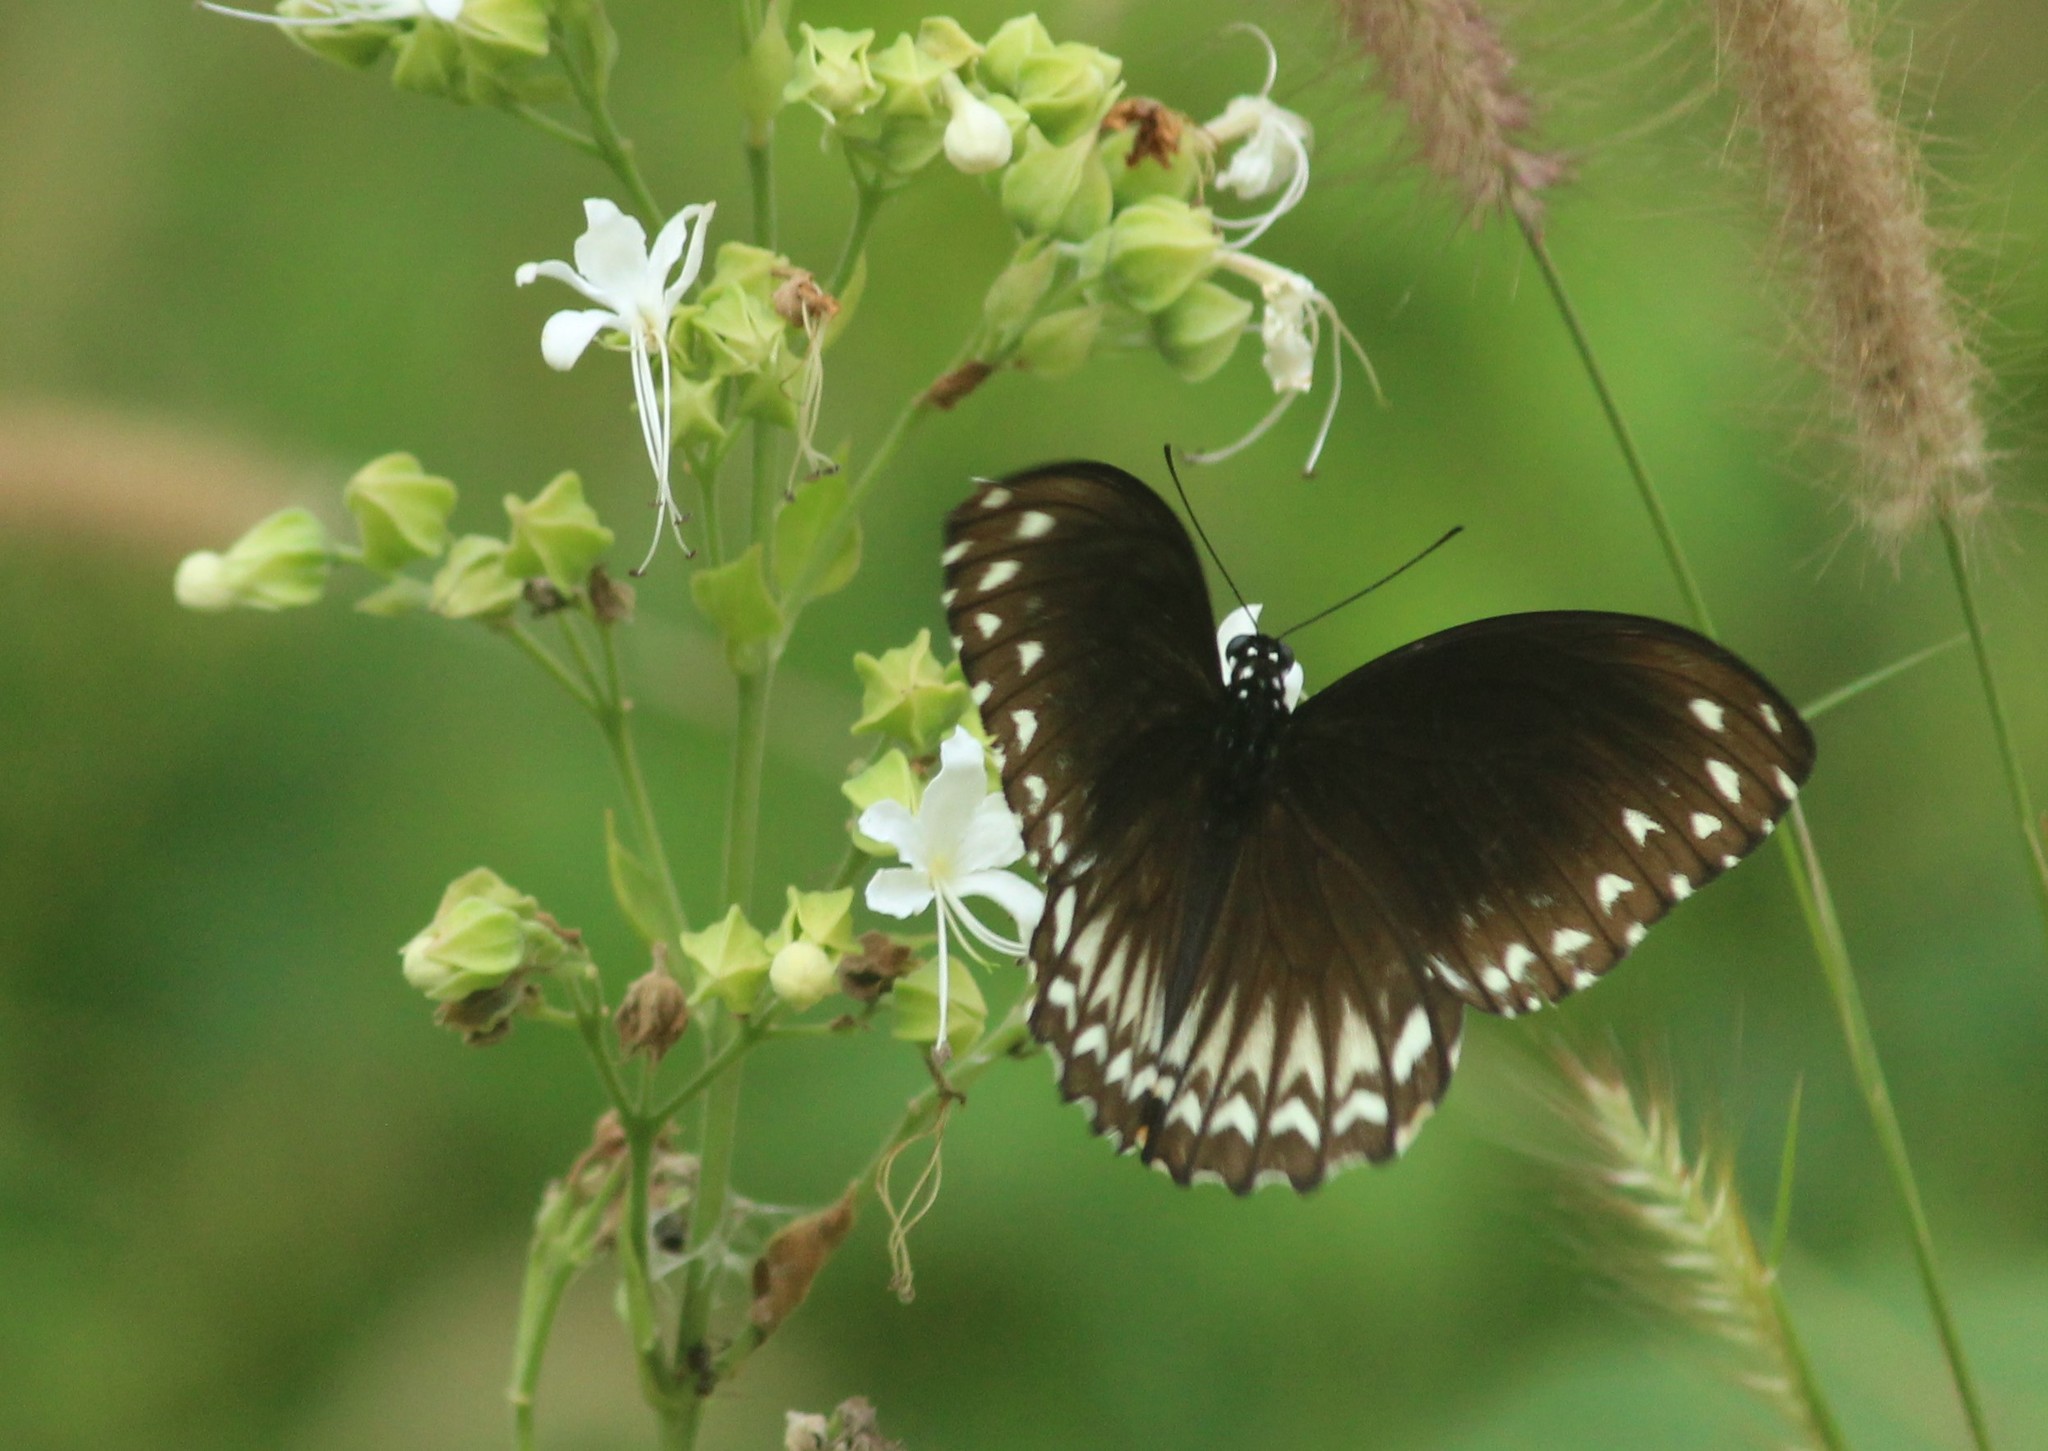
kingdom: Animalia
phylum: Arthropoda
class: Insecta
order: Lepidoptera
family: Papilionidae
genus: Chilasa
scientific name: Chilasa clytia
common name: Common mime
